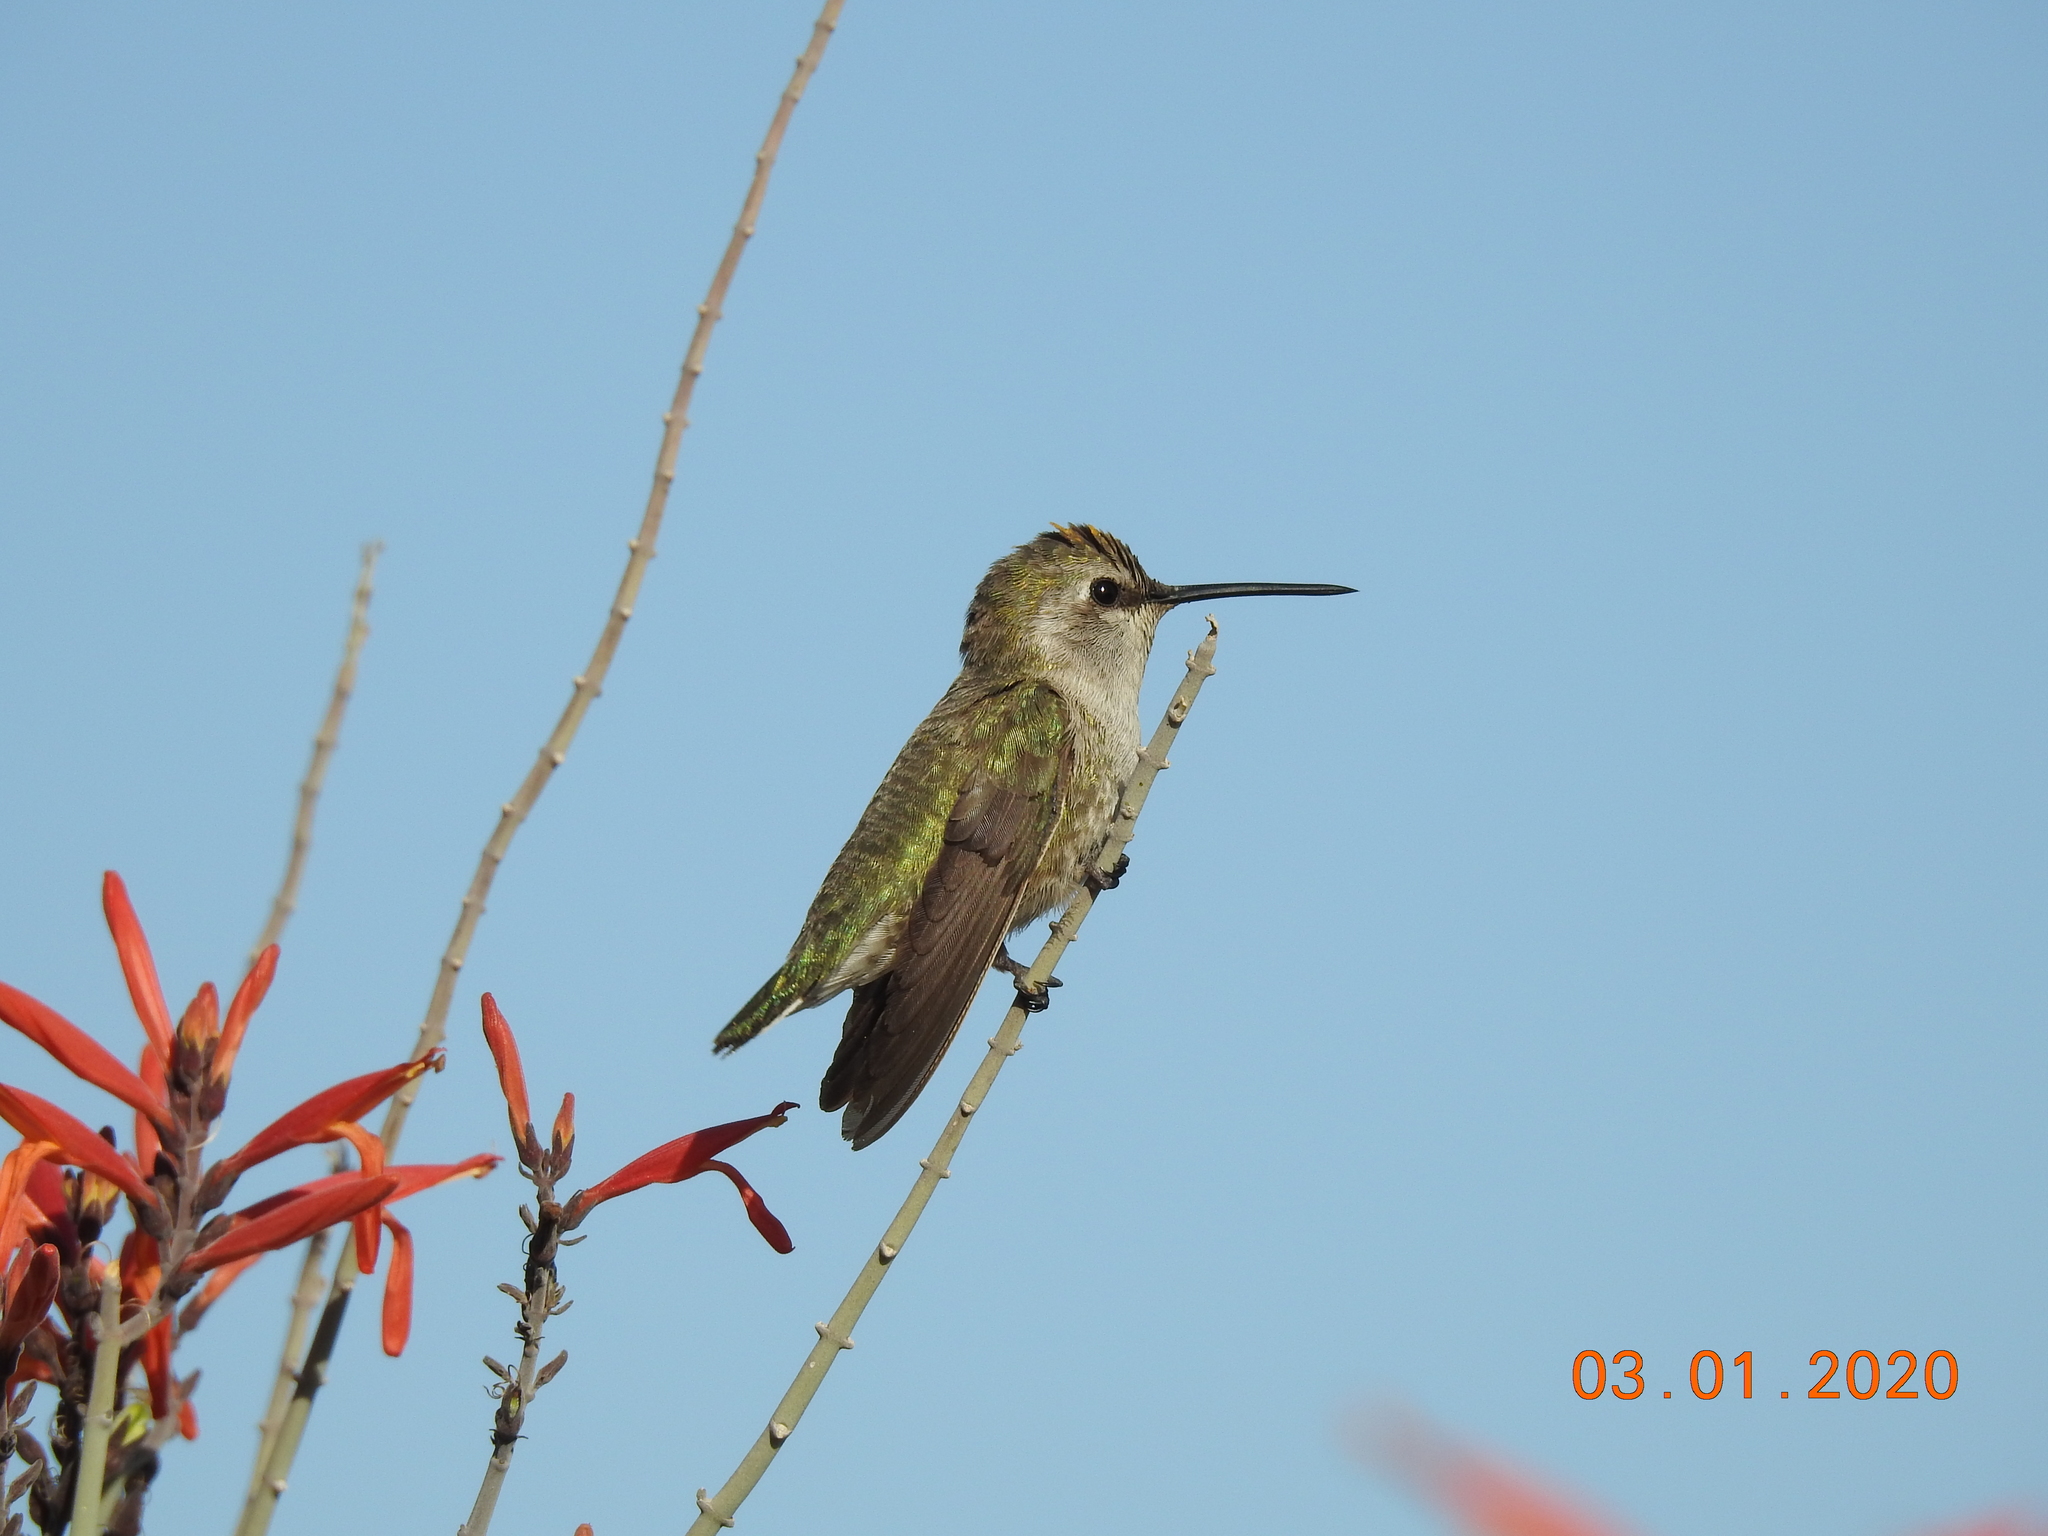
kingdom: Animalia
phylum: Chordata
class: Aves
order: Apodiformes
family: Trochilidae
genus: Calypte
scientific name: Calypte costae
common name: Costa's hummingbird
